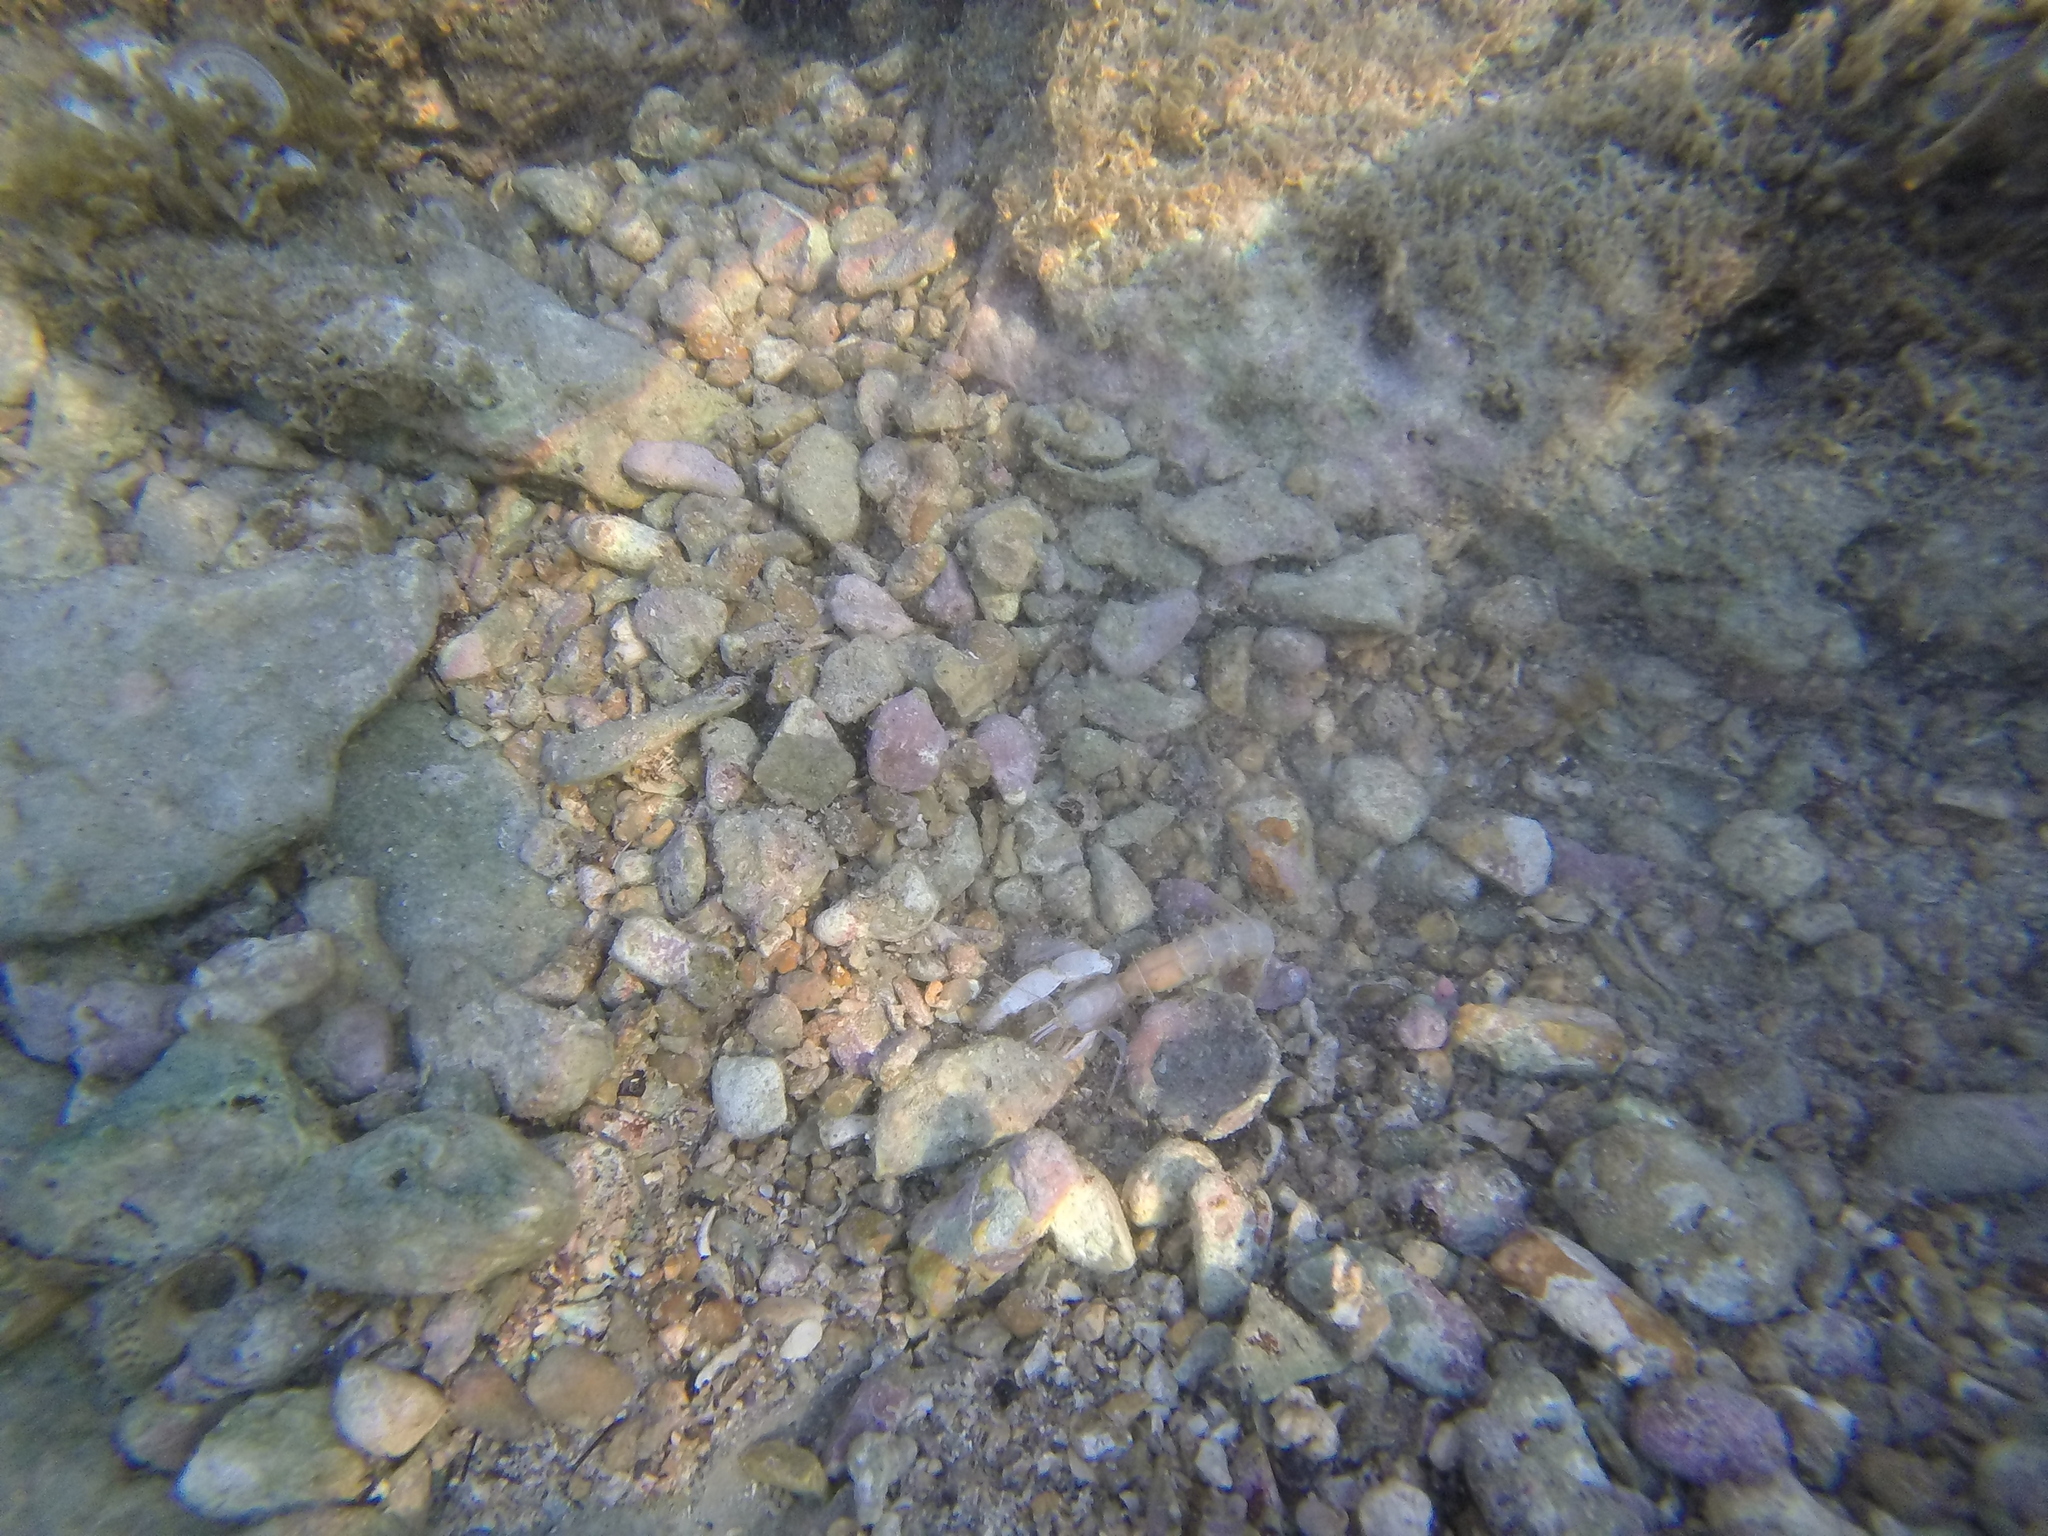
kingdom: Animalia
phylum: Arthropoda
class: Malacostraca
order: Decapoda
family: Callianassidae
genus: Gilvossius
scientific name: Gilvossius tyrrhenus
